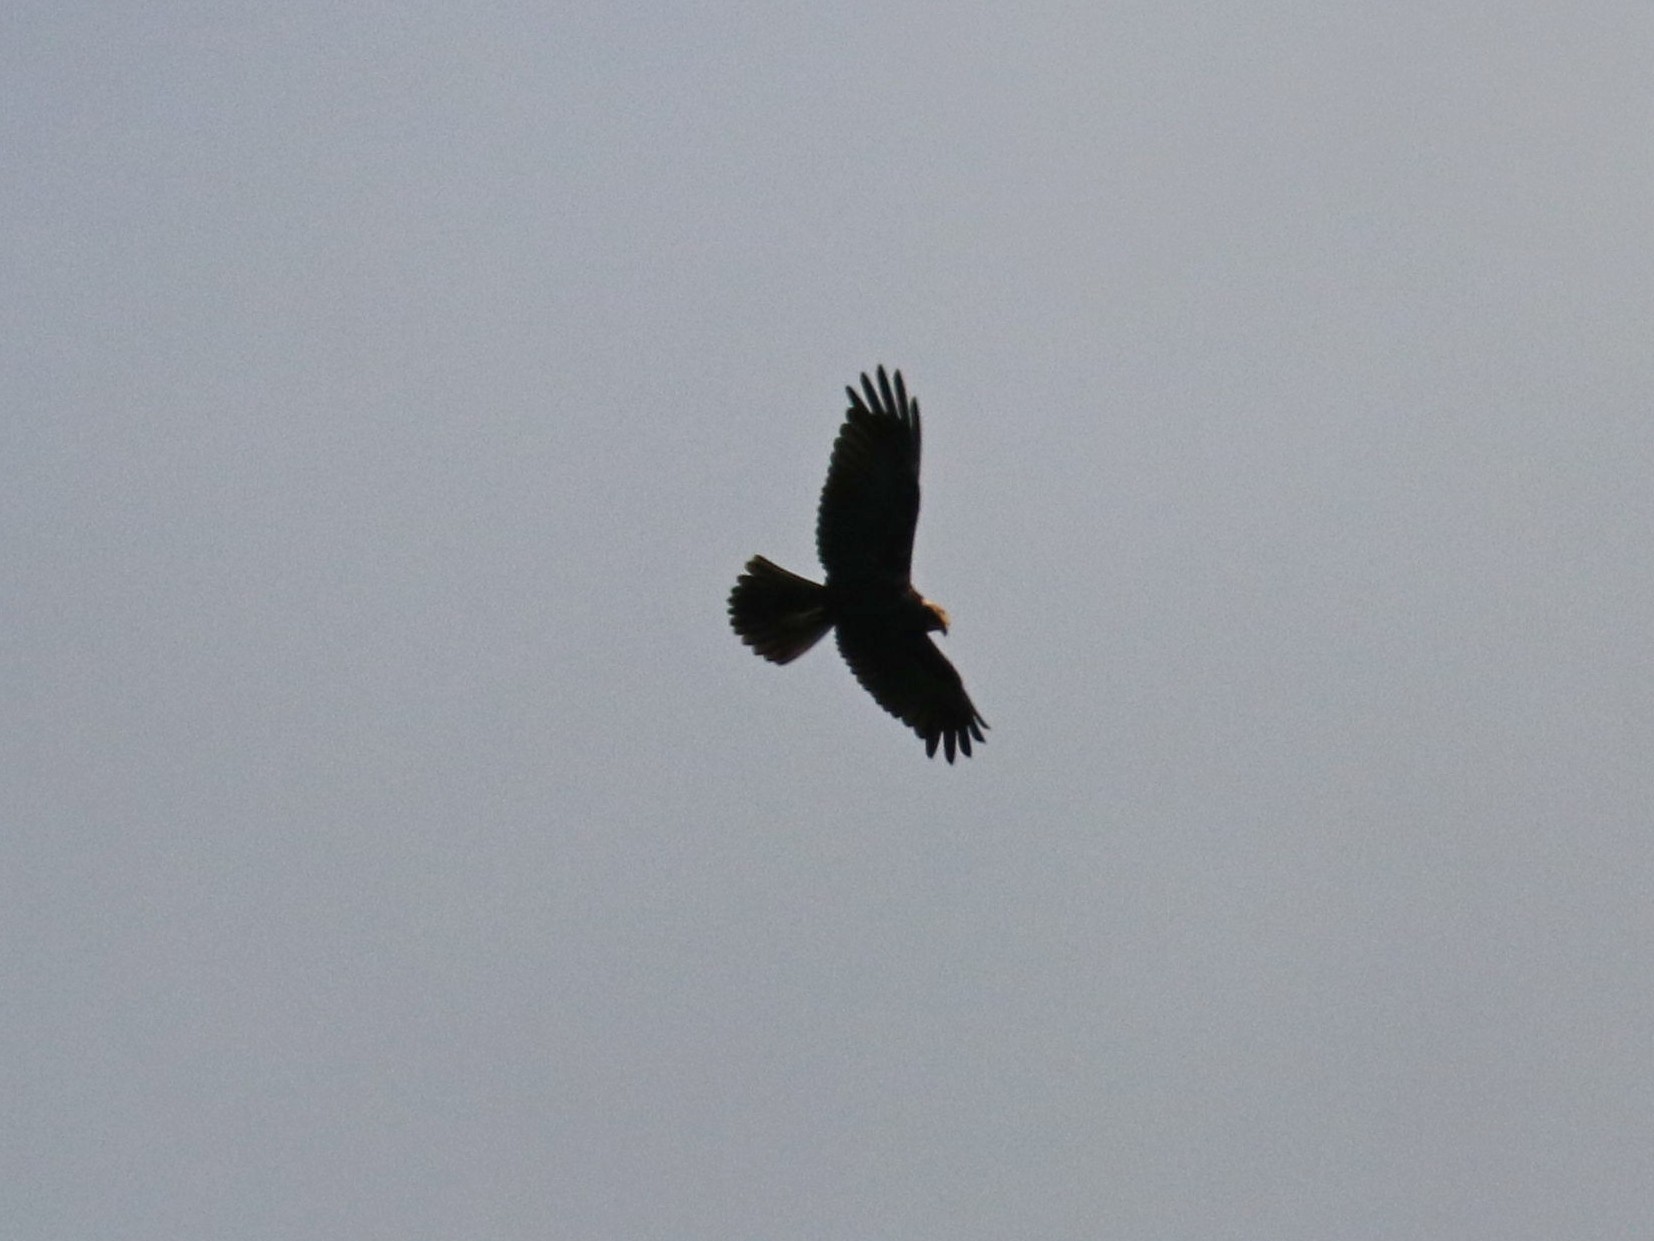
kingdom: Animalia
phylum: Chordata
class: Aves
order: Accipitriformes
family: Accipitridae
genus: Circus
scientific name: Circus aeruginosus
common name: Western marsh harrier
